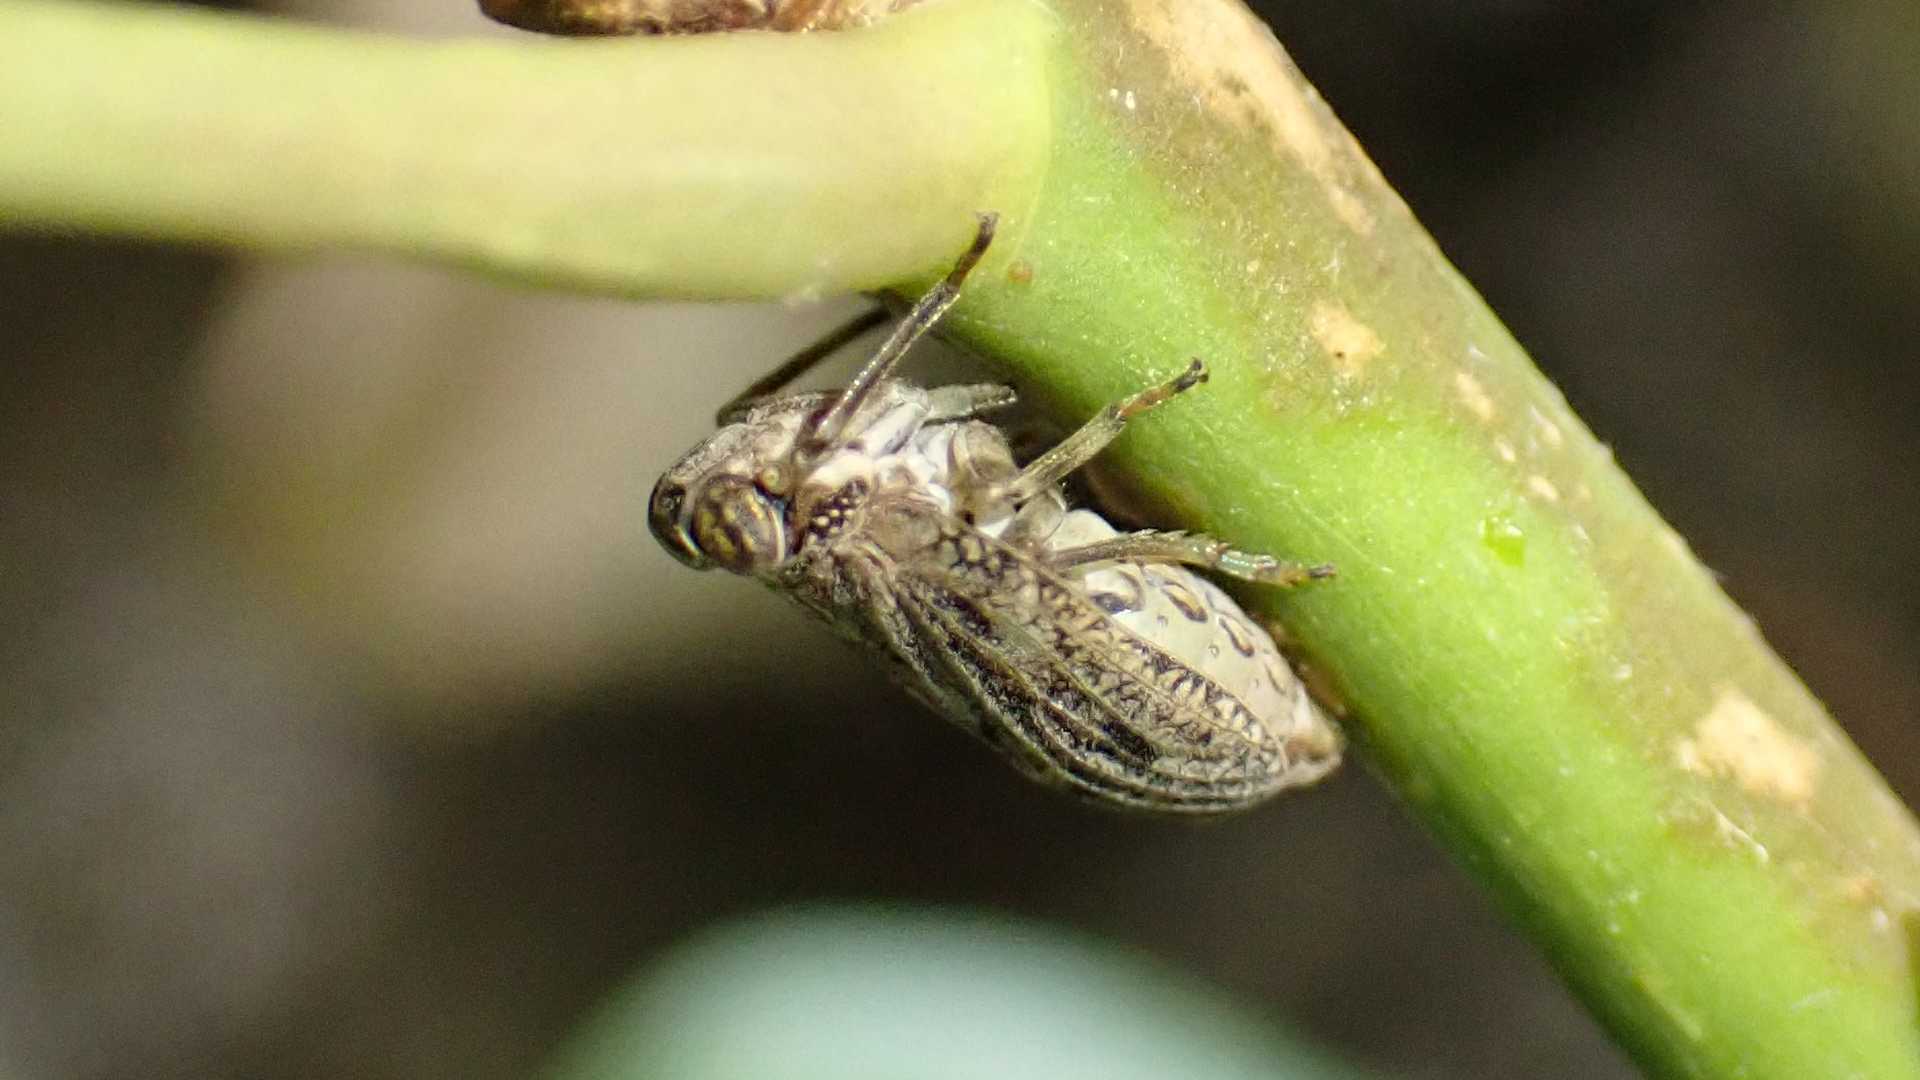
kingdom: Animalia
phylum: Arthropoda
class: Insecta
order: Hemiptera
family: Issidae
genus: Issus
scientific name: Issus coleoptratus
